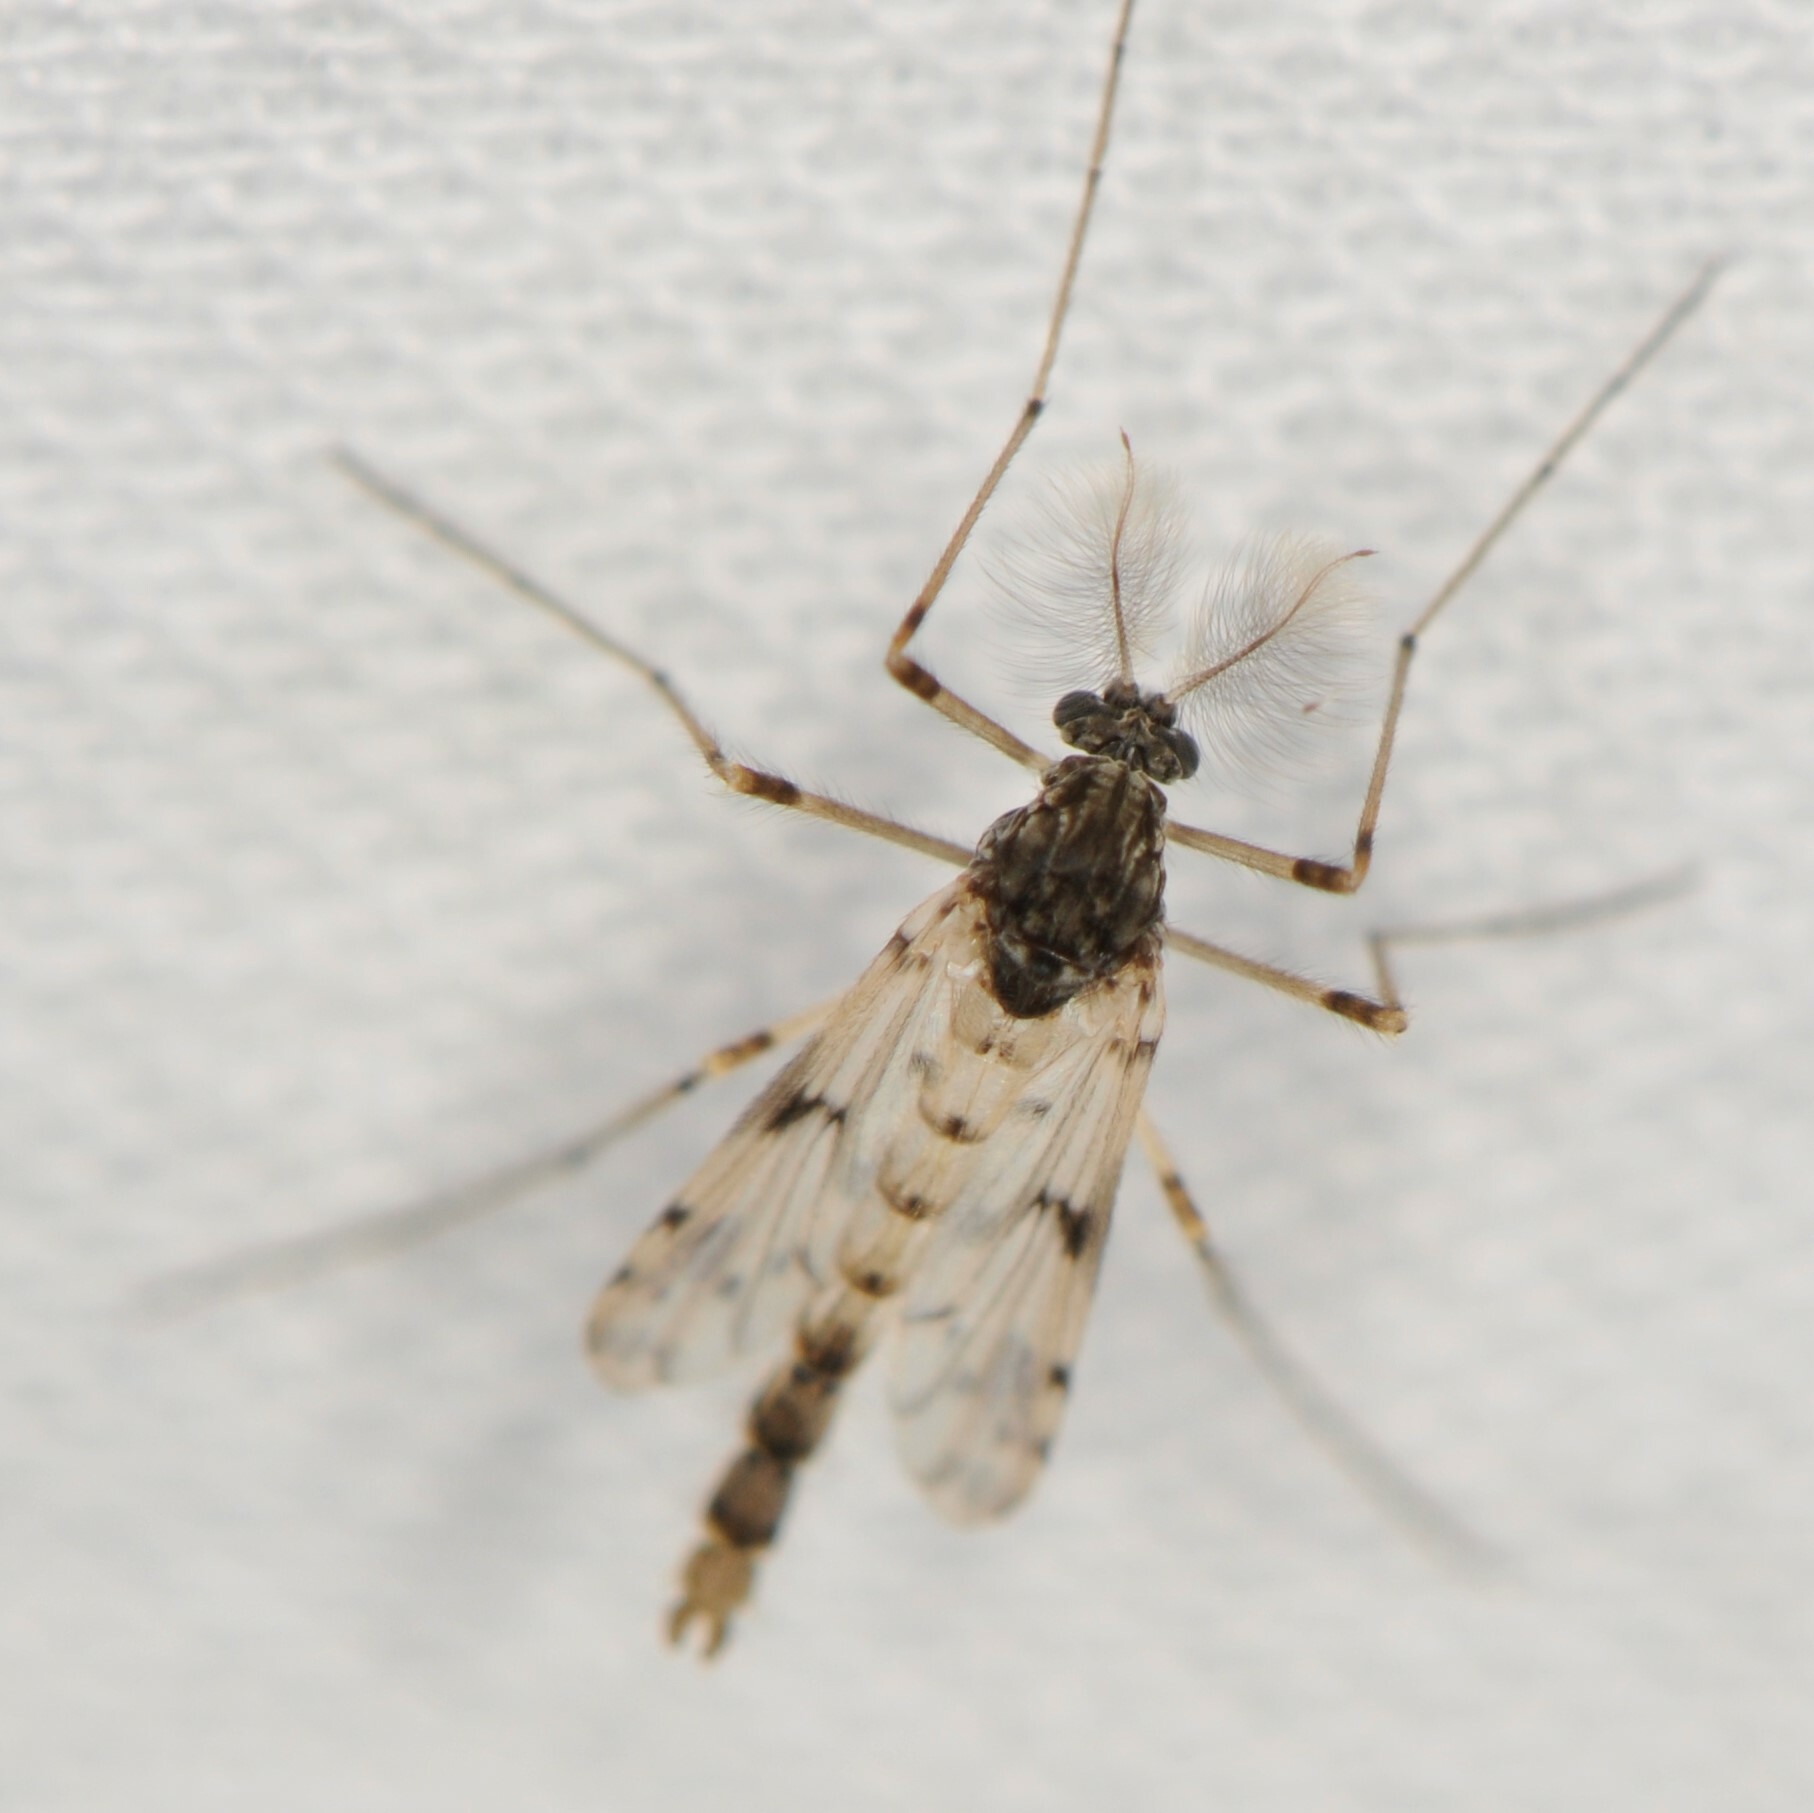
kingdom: Animalia
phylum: Arthropoda
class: Insecta
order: Diptera
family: Chironomidae
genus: Alotanypus
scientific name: Alotanypus venusta
